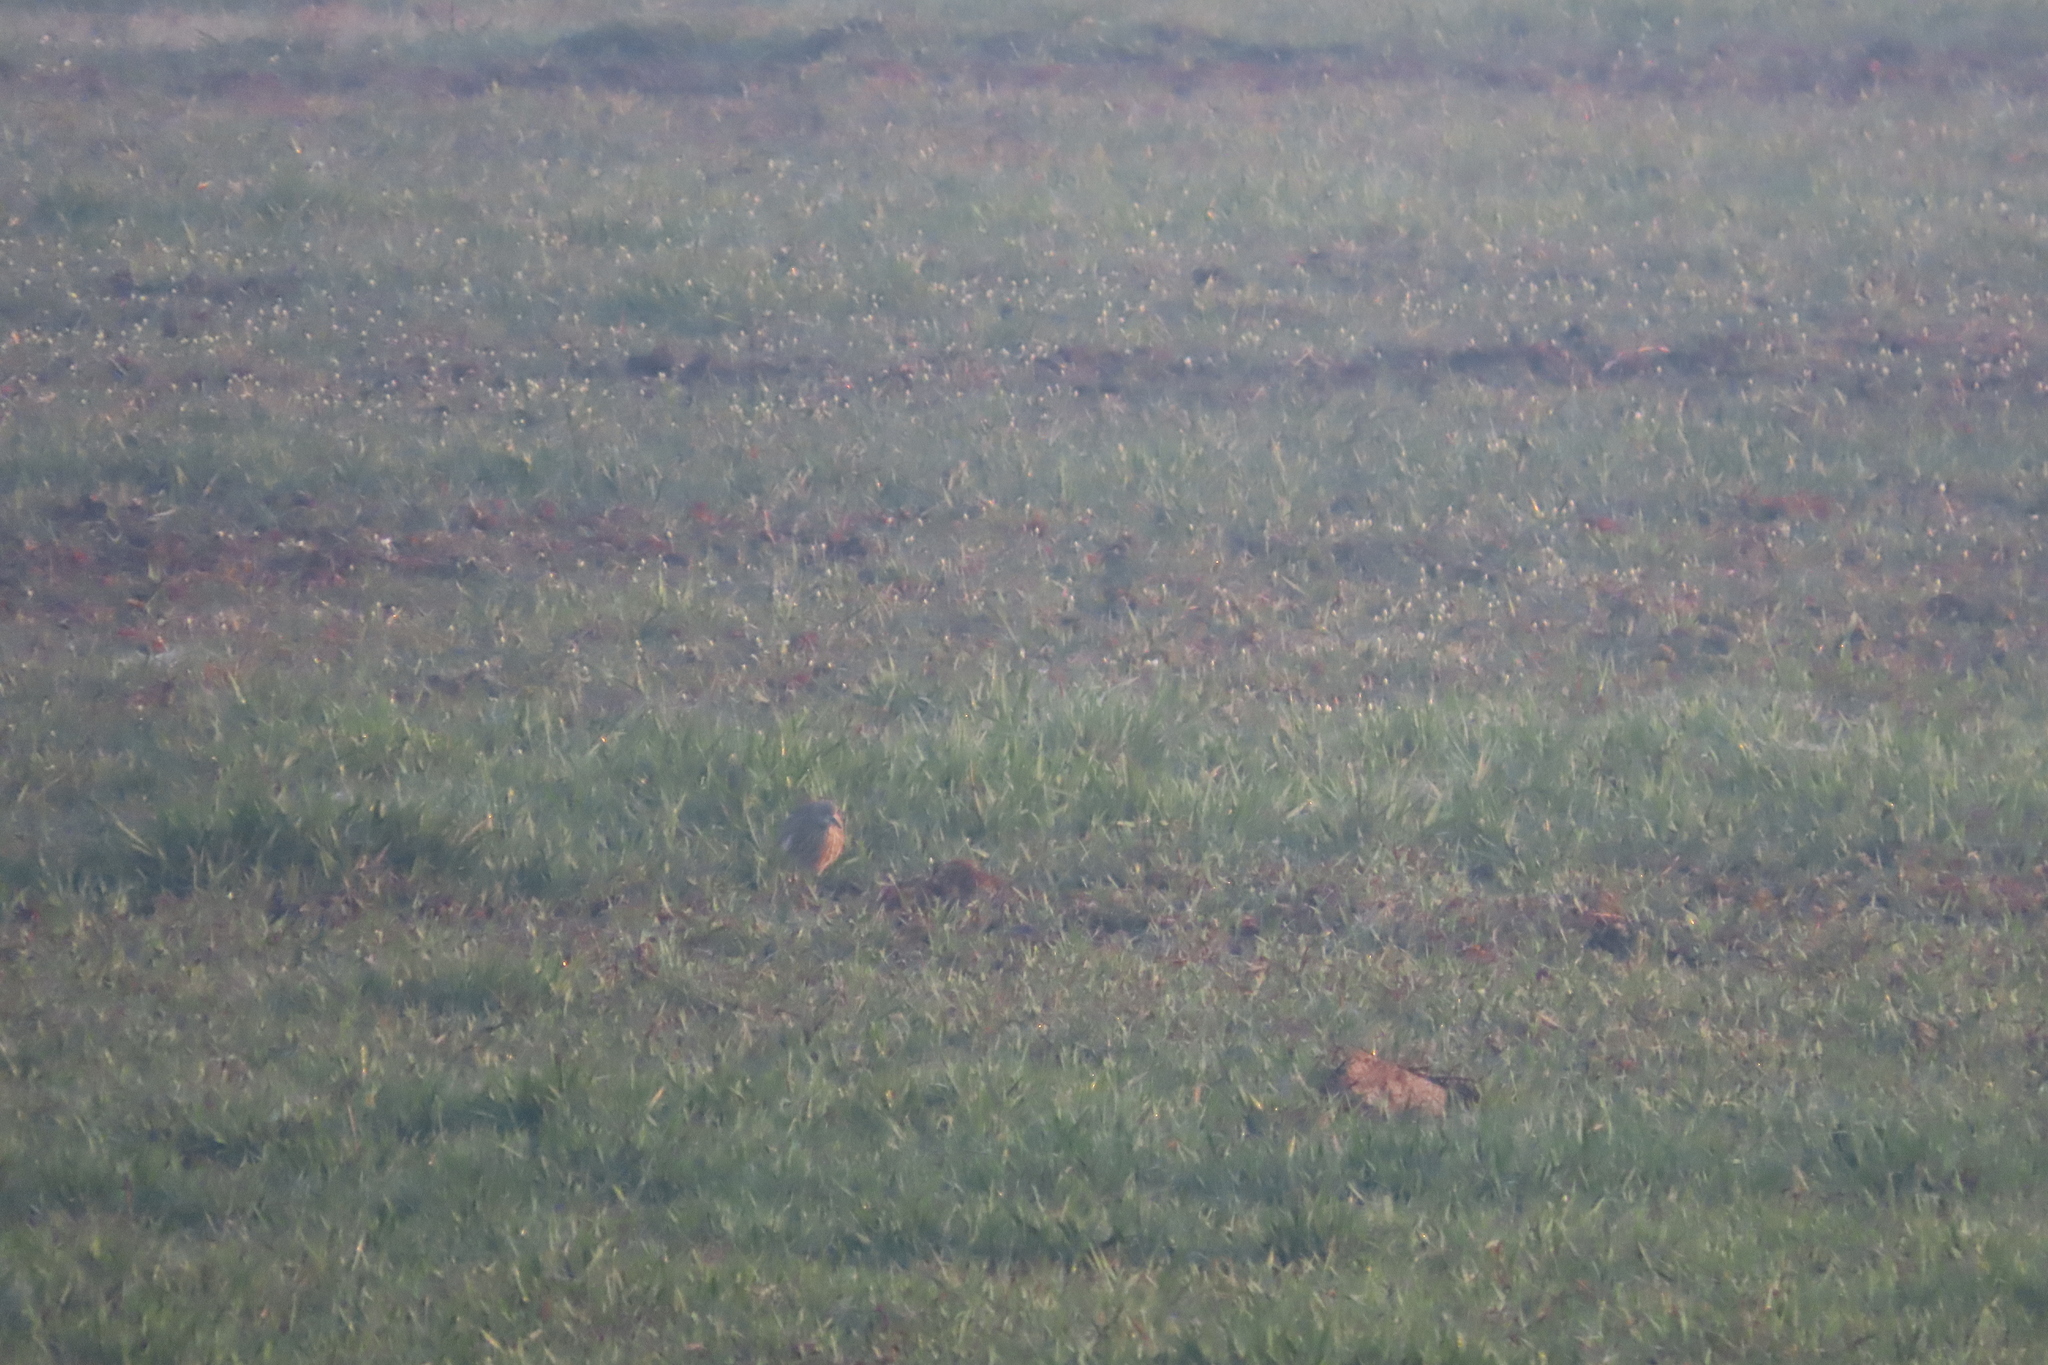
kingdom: Animalia
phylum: Chordata
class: Aves
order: Pelecaniformes
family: Ardeidae
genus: Ardeola
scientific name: Ardeola grayii
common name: Indian pond heron
